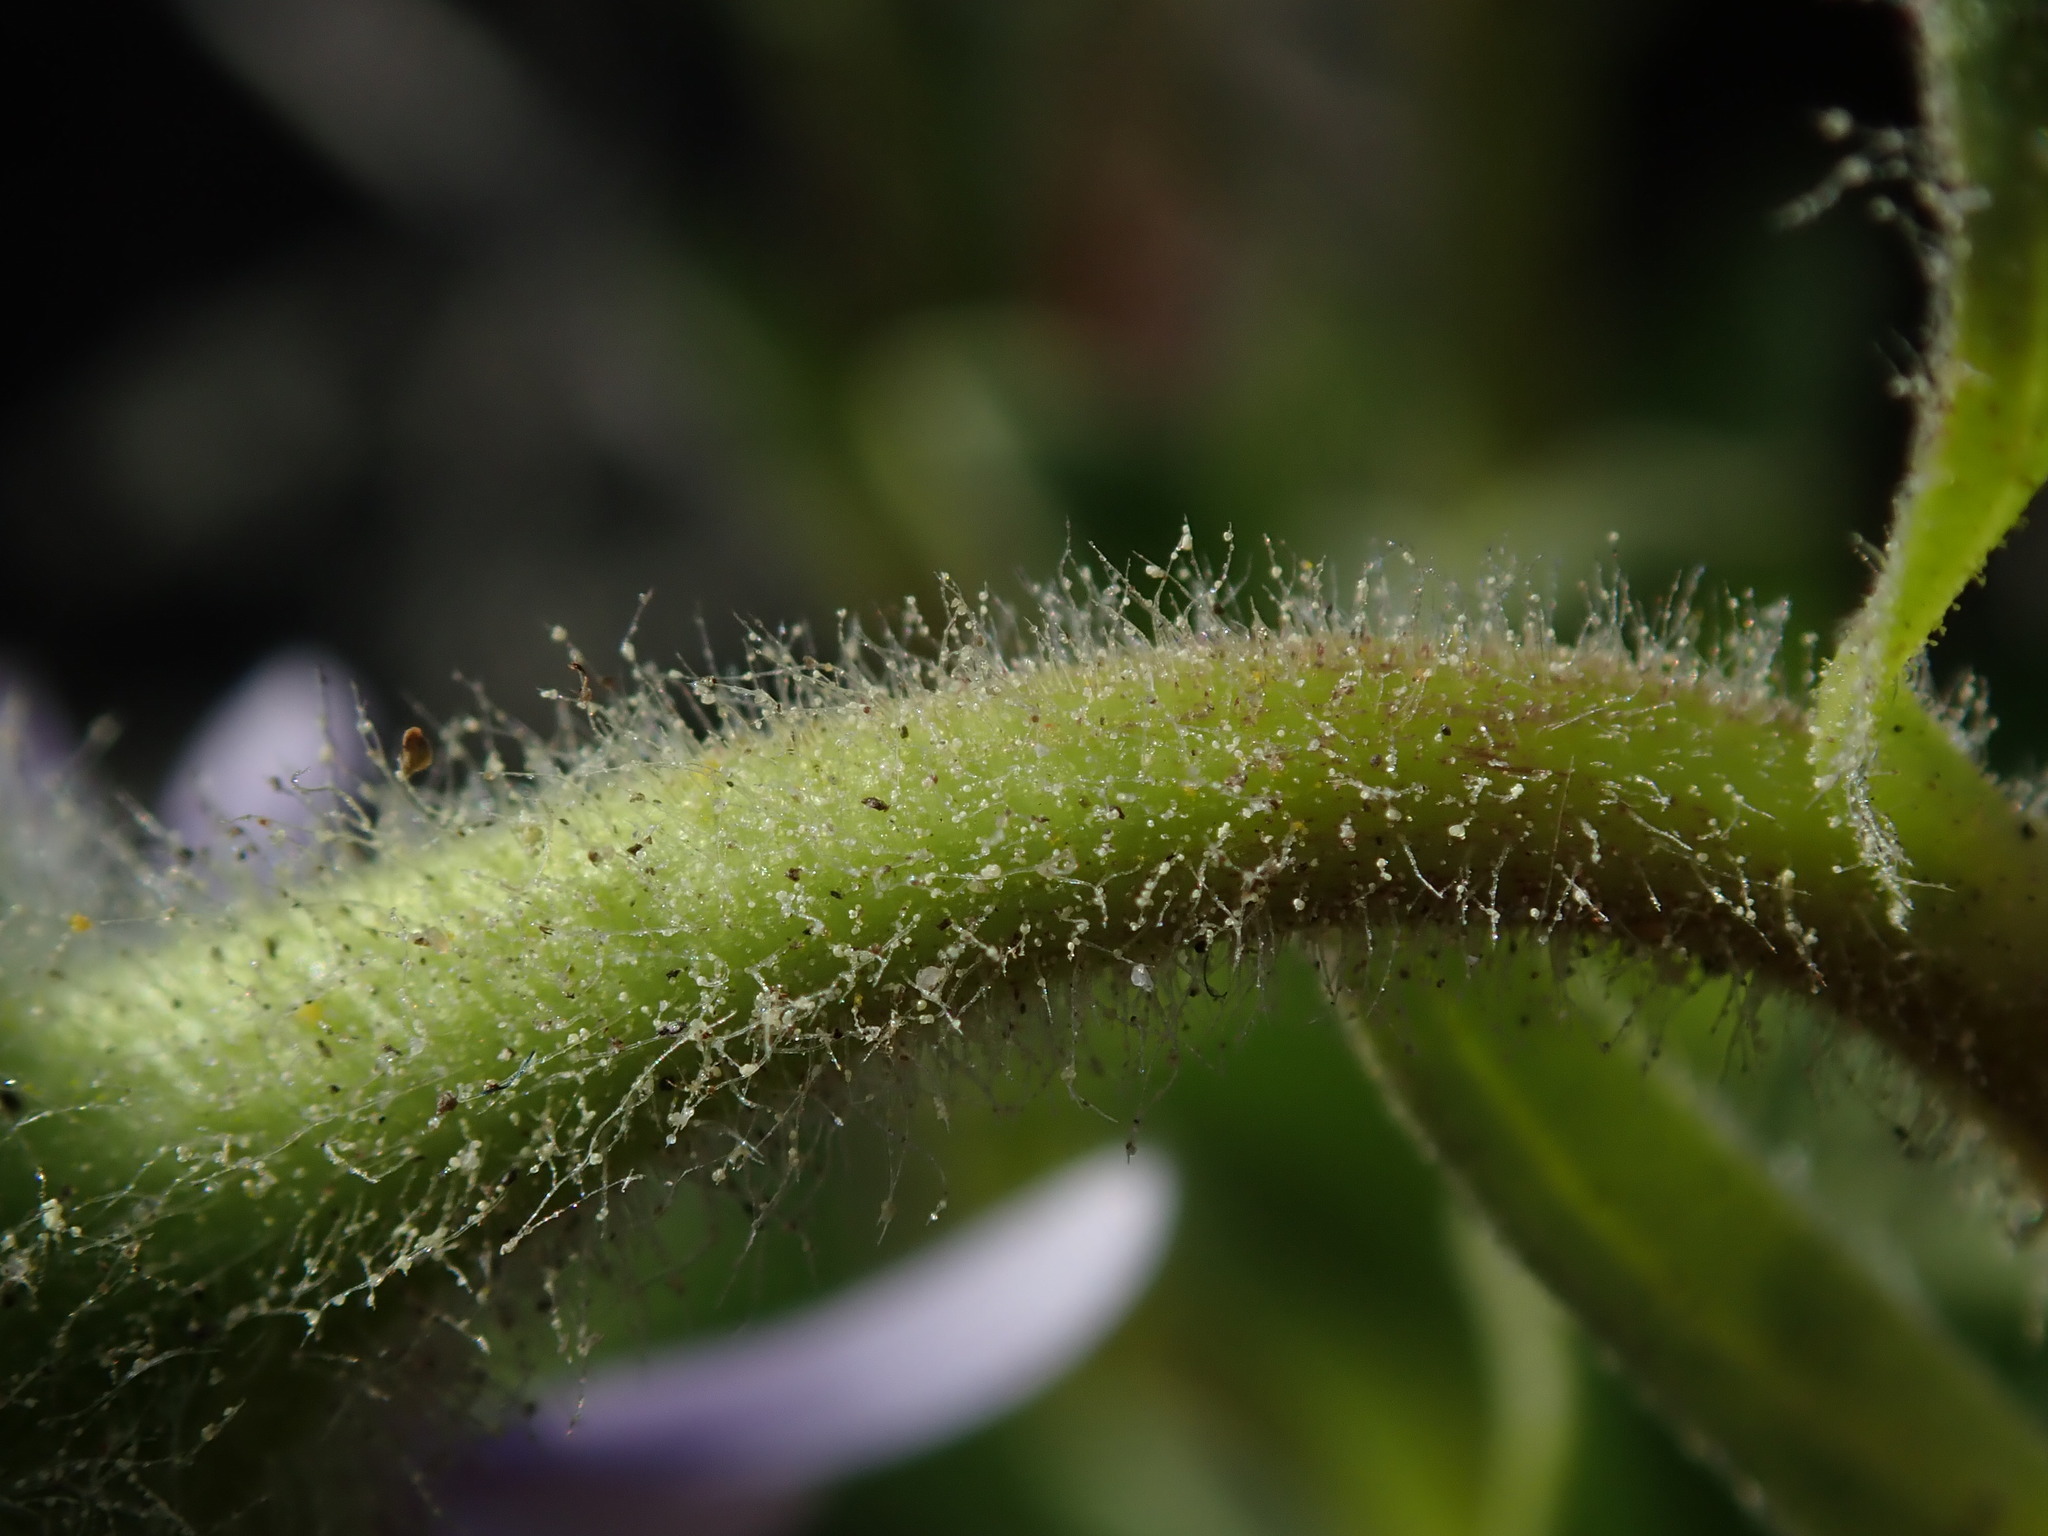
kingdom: Plantae
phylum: Tracheophyta
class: Magnoliopsida
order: Asterales
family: Asteraceae
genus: Erigeron
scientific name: Erigeron glaucus
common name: Seaside daisy
